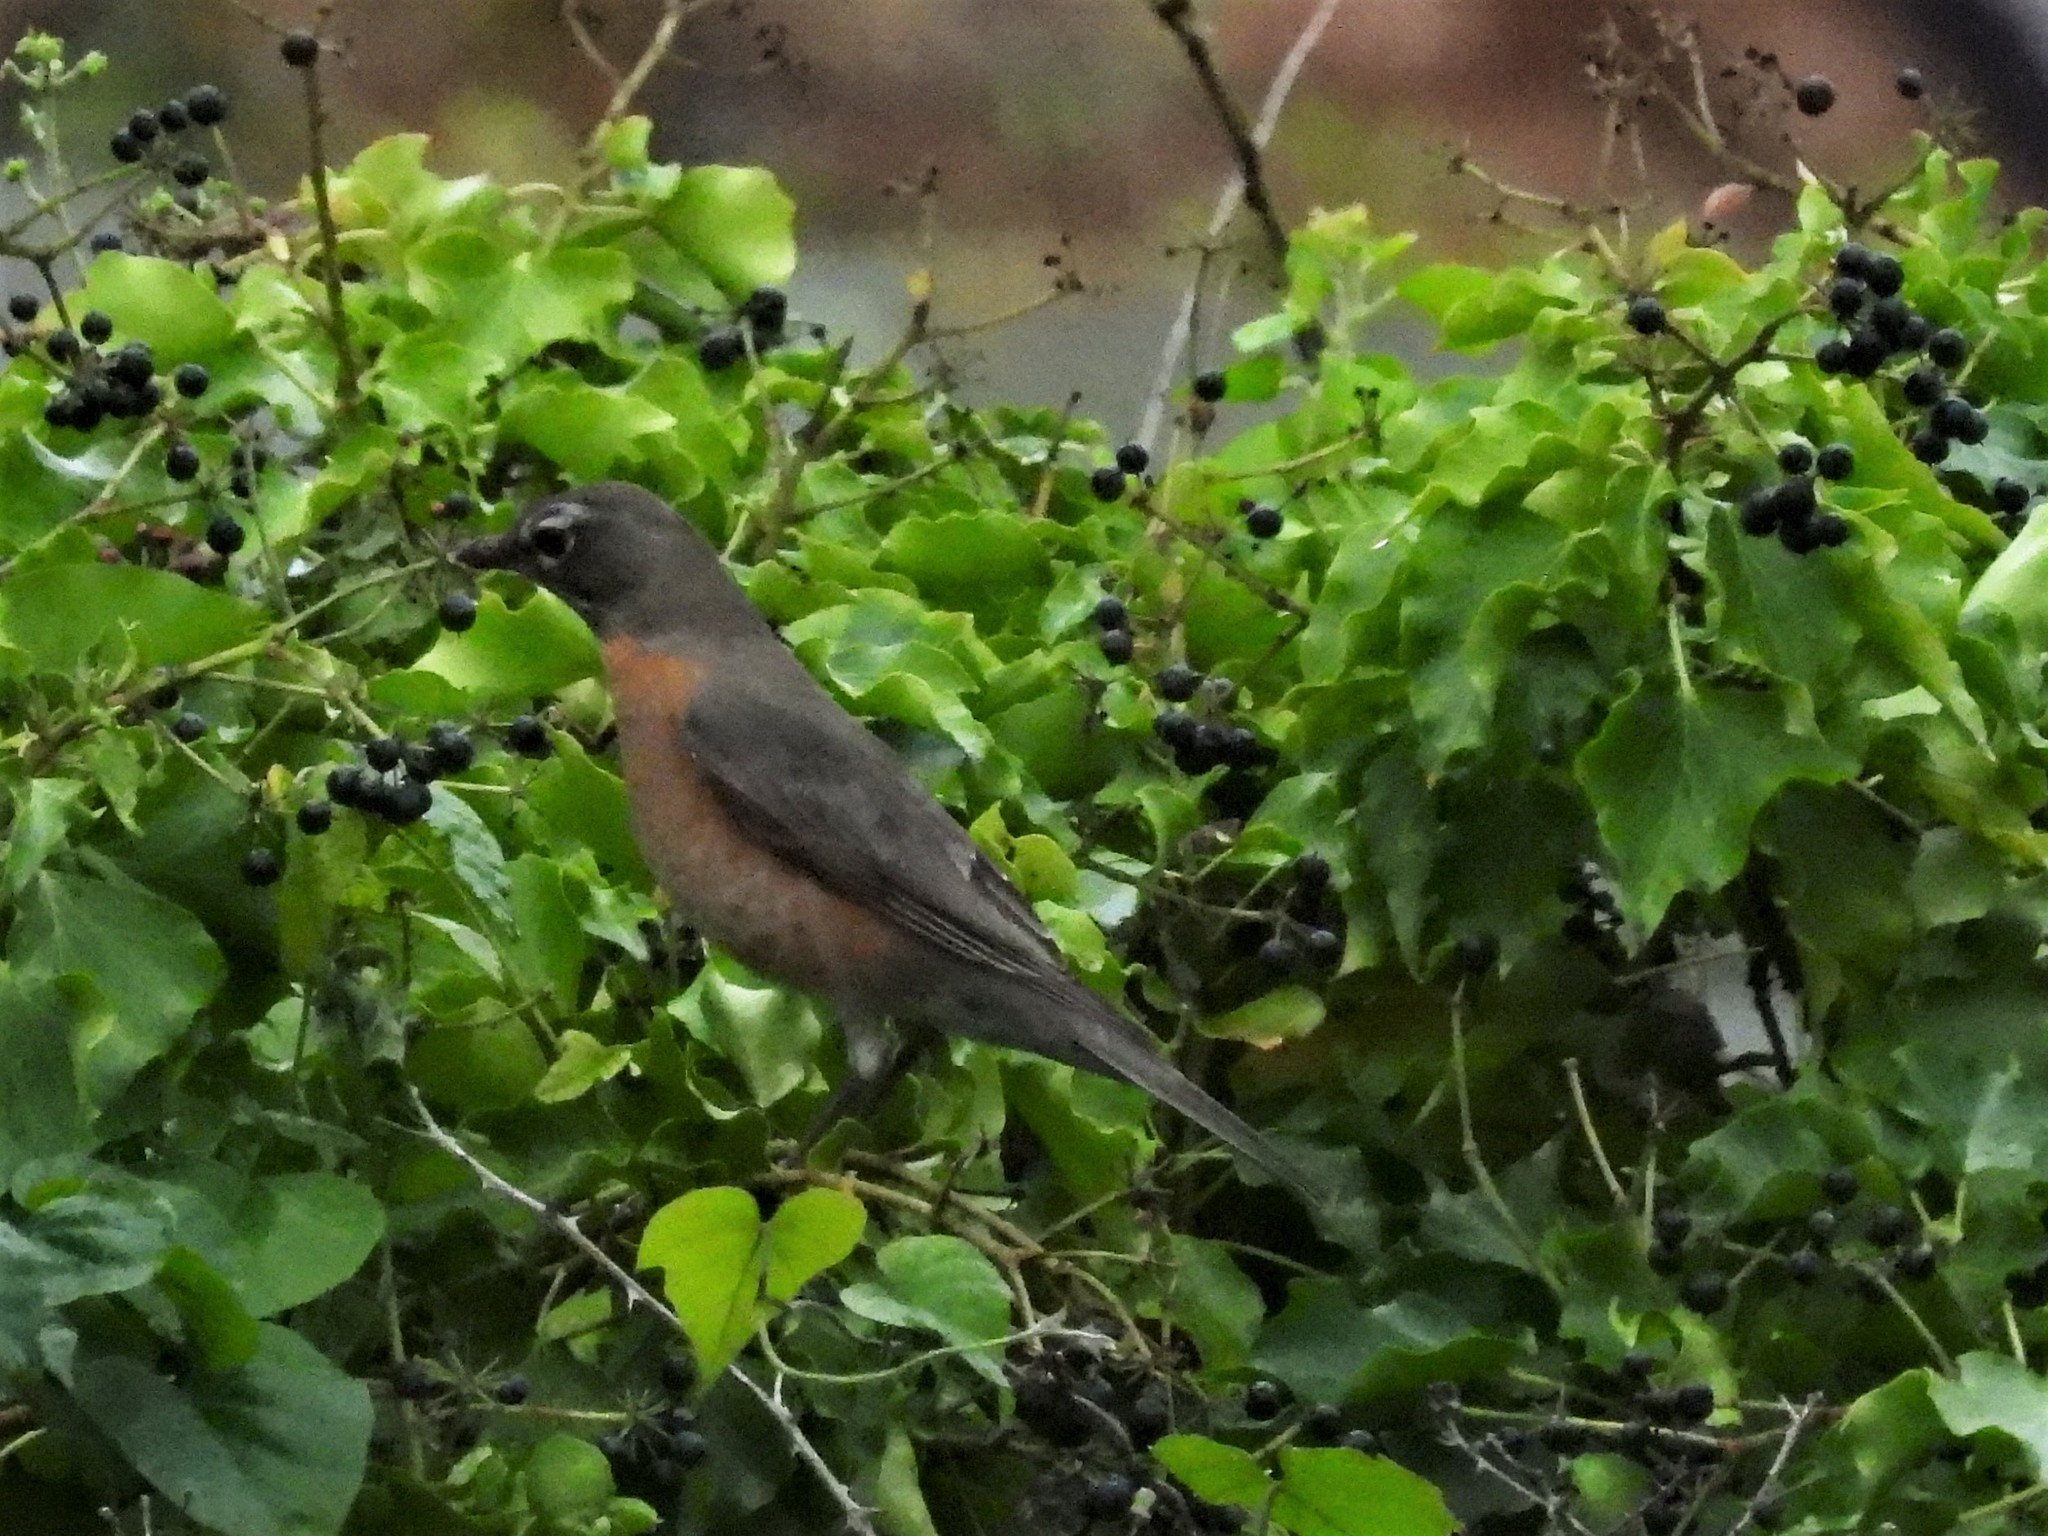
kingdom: Animalia
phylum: Chordata
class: Aves
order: Passeriformes
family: Turdidae
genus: Turdus
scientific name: Turdus migratorius
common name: American robin
